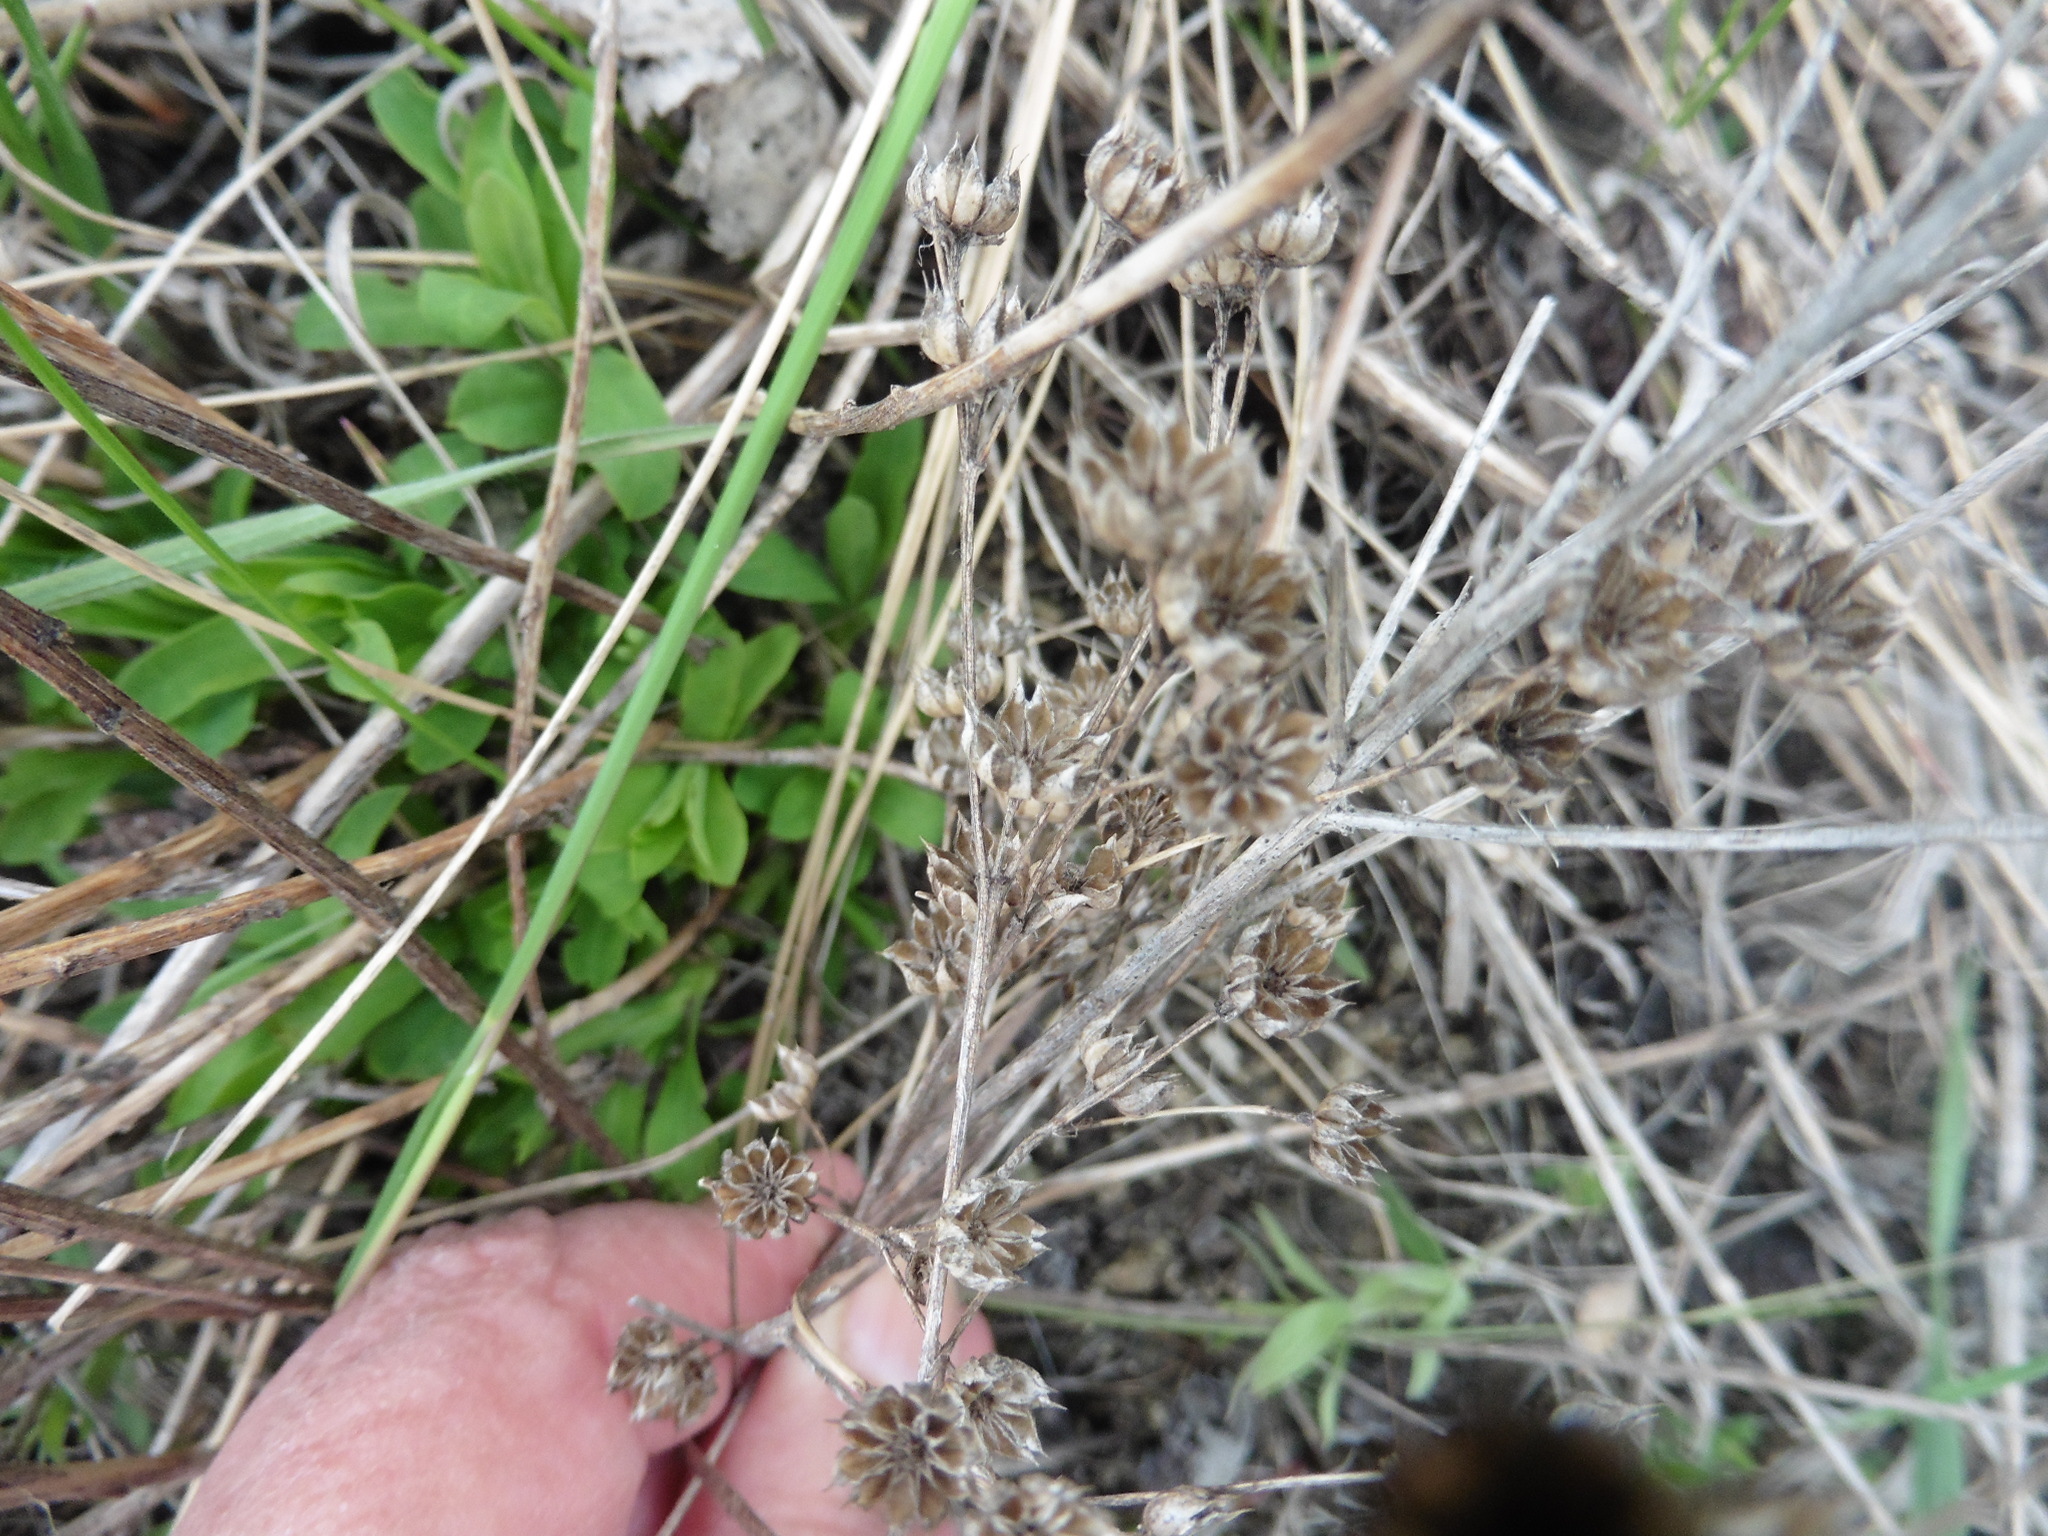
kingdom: Plantae
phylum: Tracheophyta
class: Magnoliopsida
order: Malpighiales
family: Linaceae
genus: Linum
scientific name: Linum flavum
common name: Yellow flax
